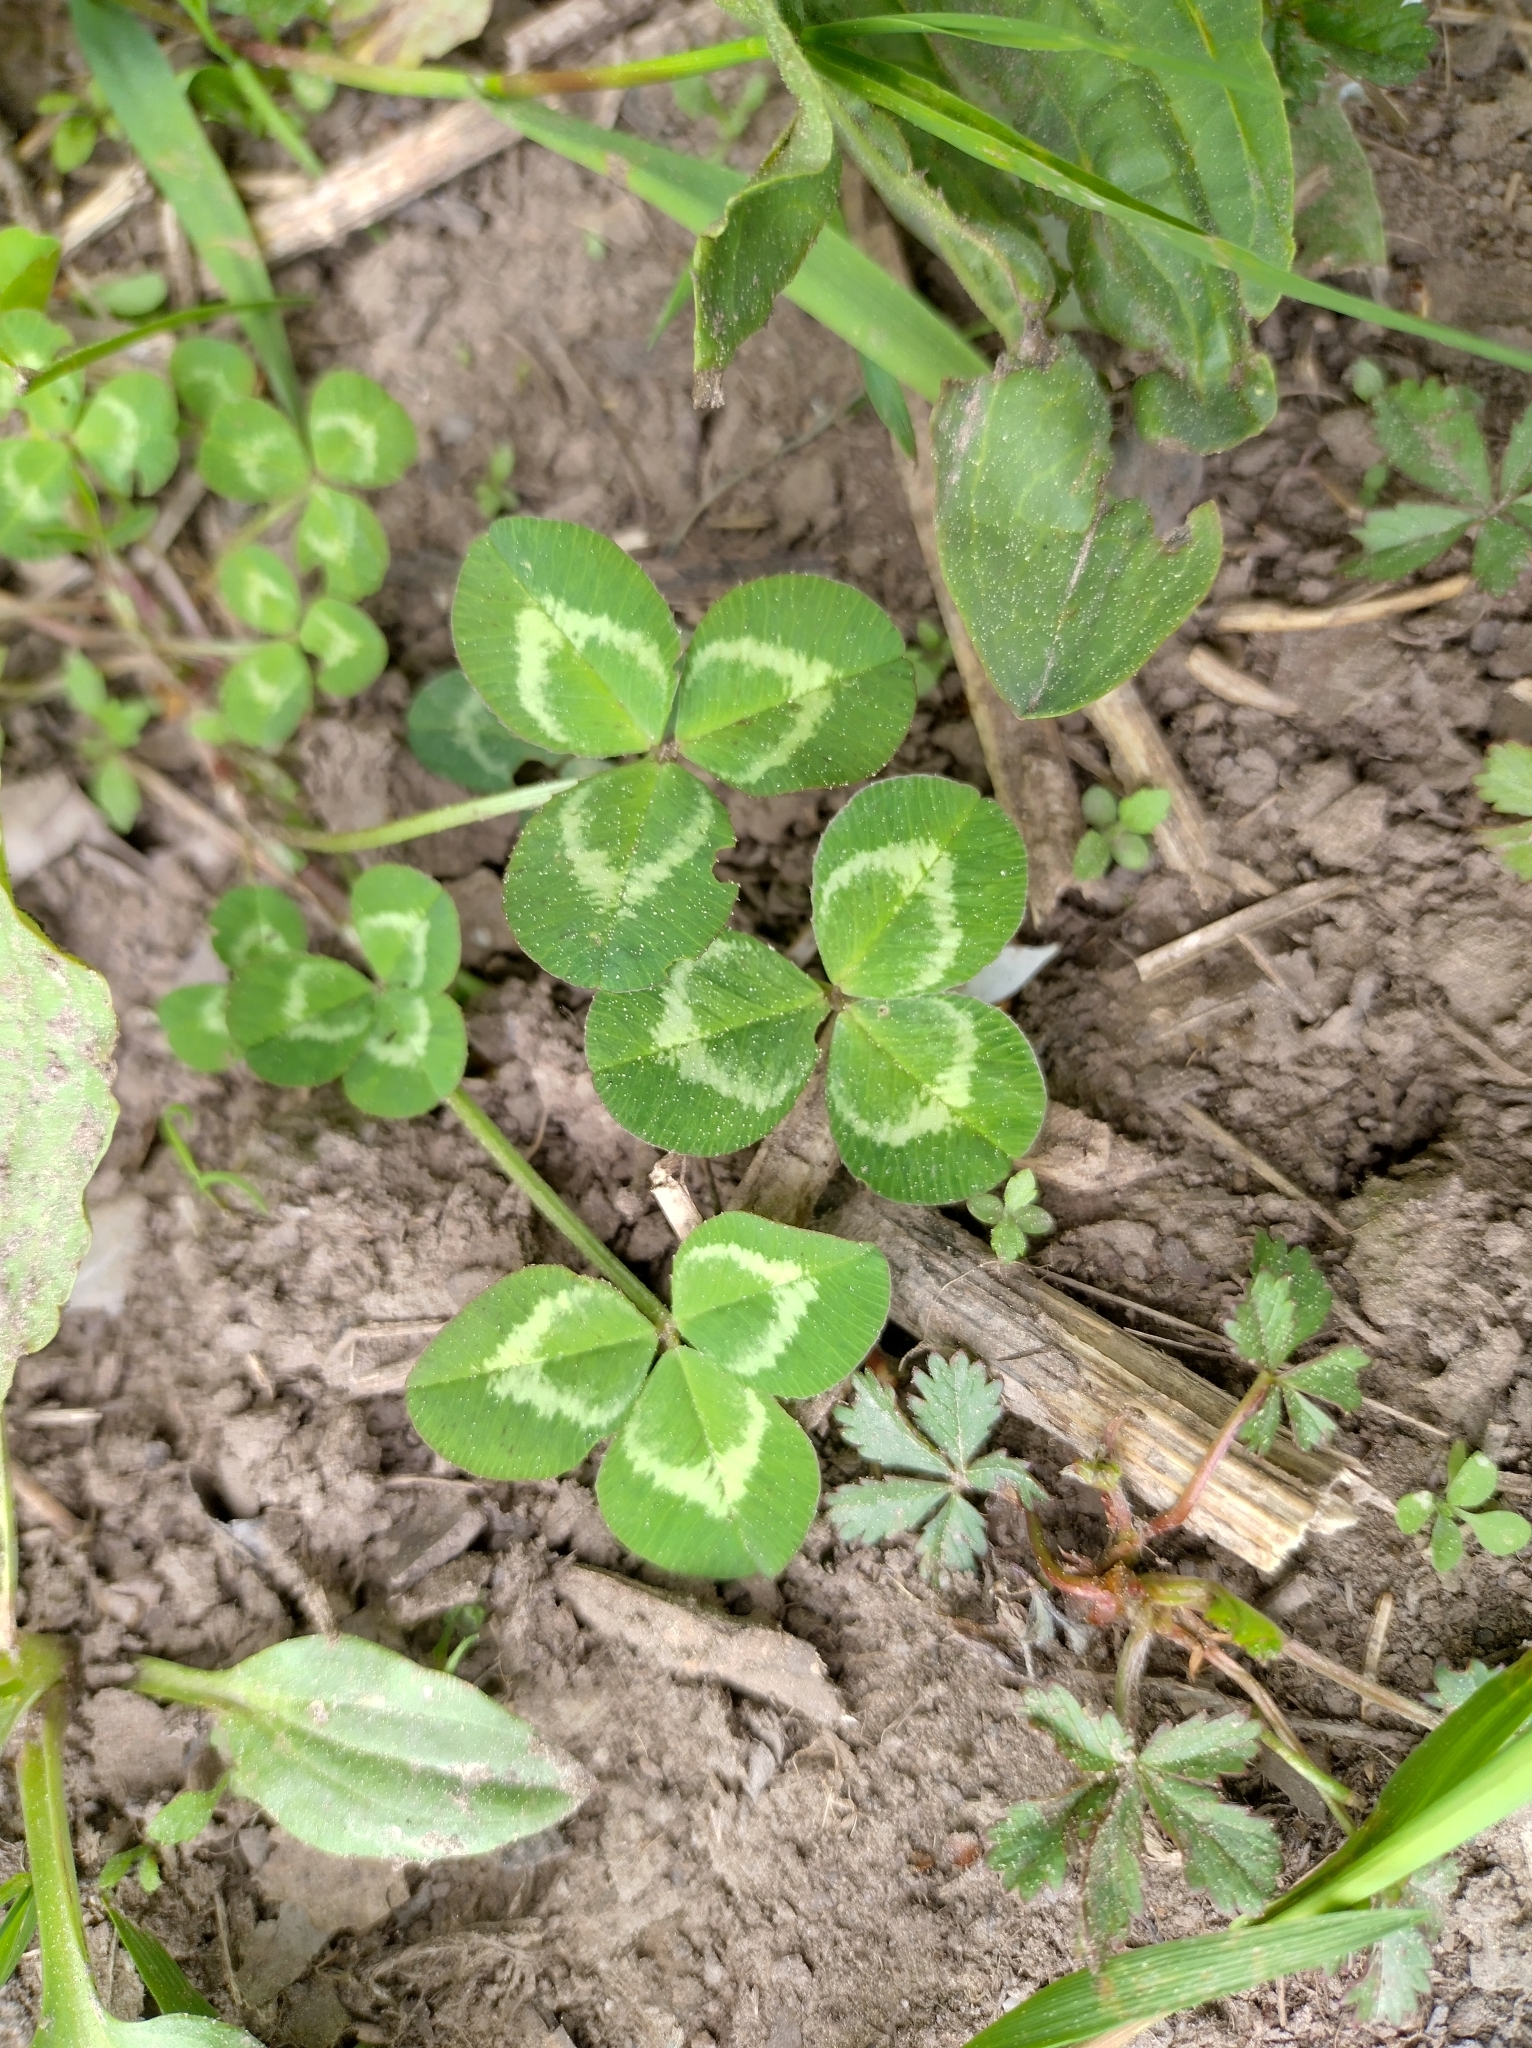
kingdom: Plantae
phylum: Tracheophyta
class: Magnoliopsida
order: Fabales
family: Fabaceae
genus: Trifolium
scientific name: Trifolium repens
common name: White clover
